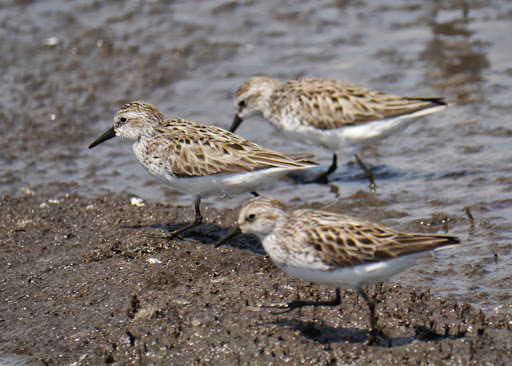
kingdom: Animalia
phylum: Chordata
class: Aves
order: Charadriiformes
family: Scolopacidae
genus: Calidris
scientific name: Calidris pusilla
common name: Semipalmated sandpiper
